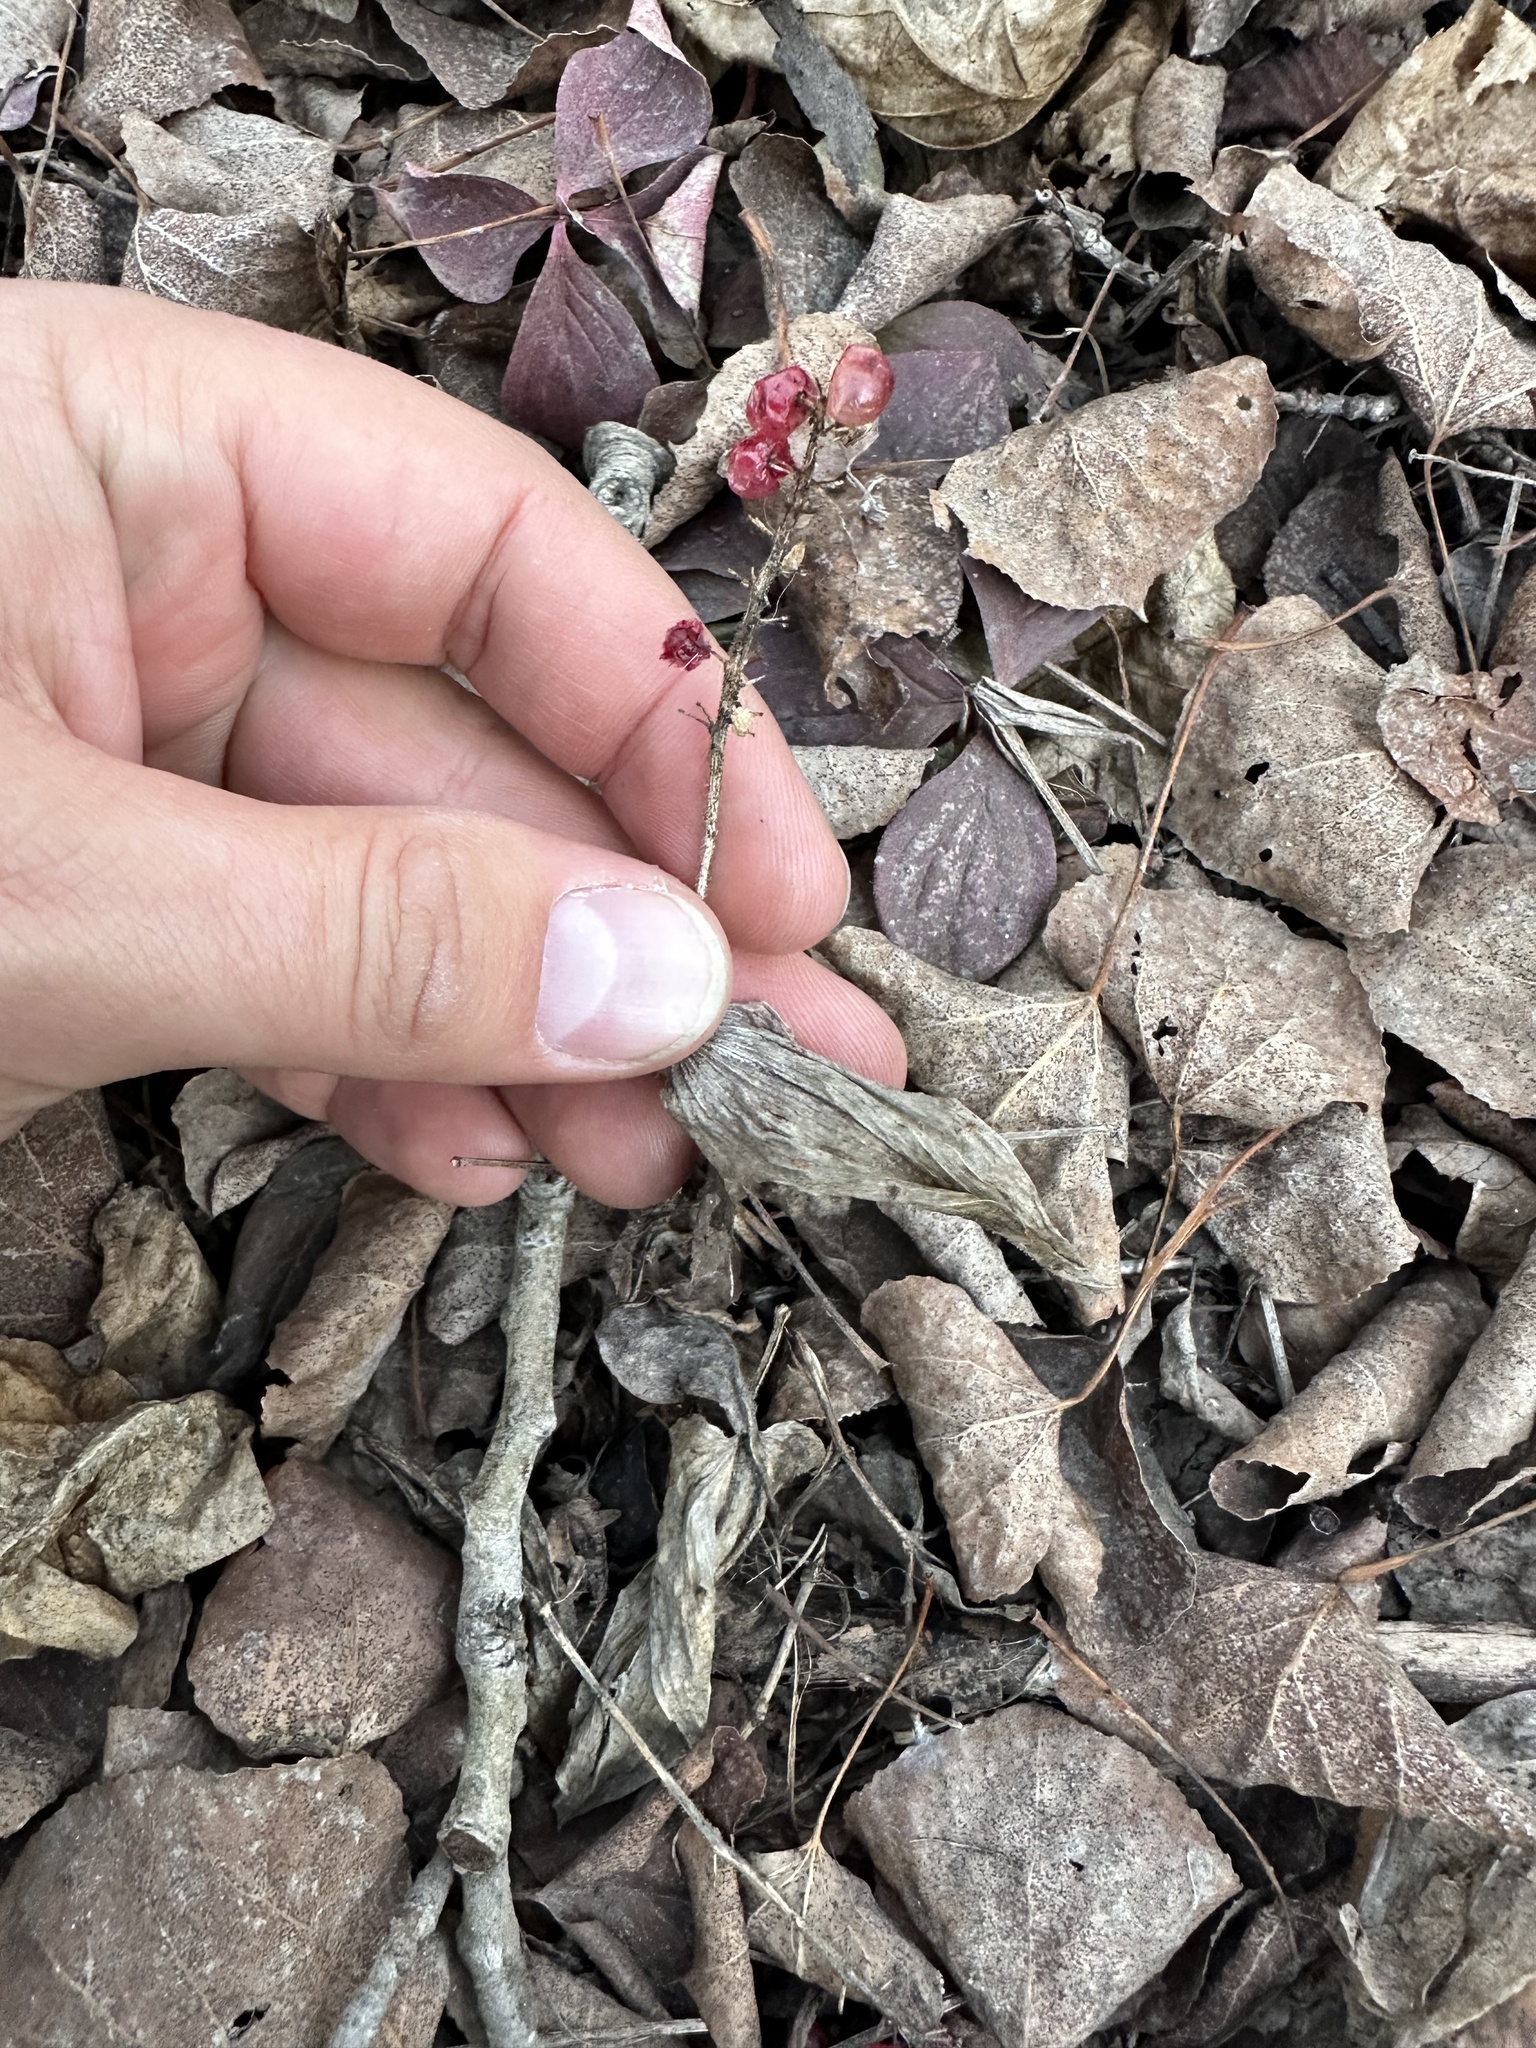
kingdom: Plantae
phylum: Tracheophyta
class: Liliopsida
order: Asparagales
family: Asparagaceae
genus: Maianthemum
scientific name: Maianthemum canadense
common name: False lily-of-the-valley
